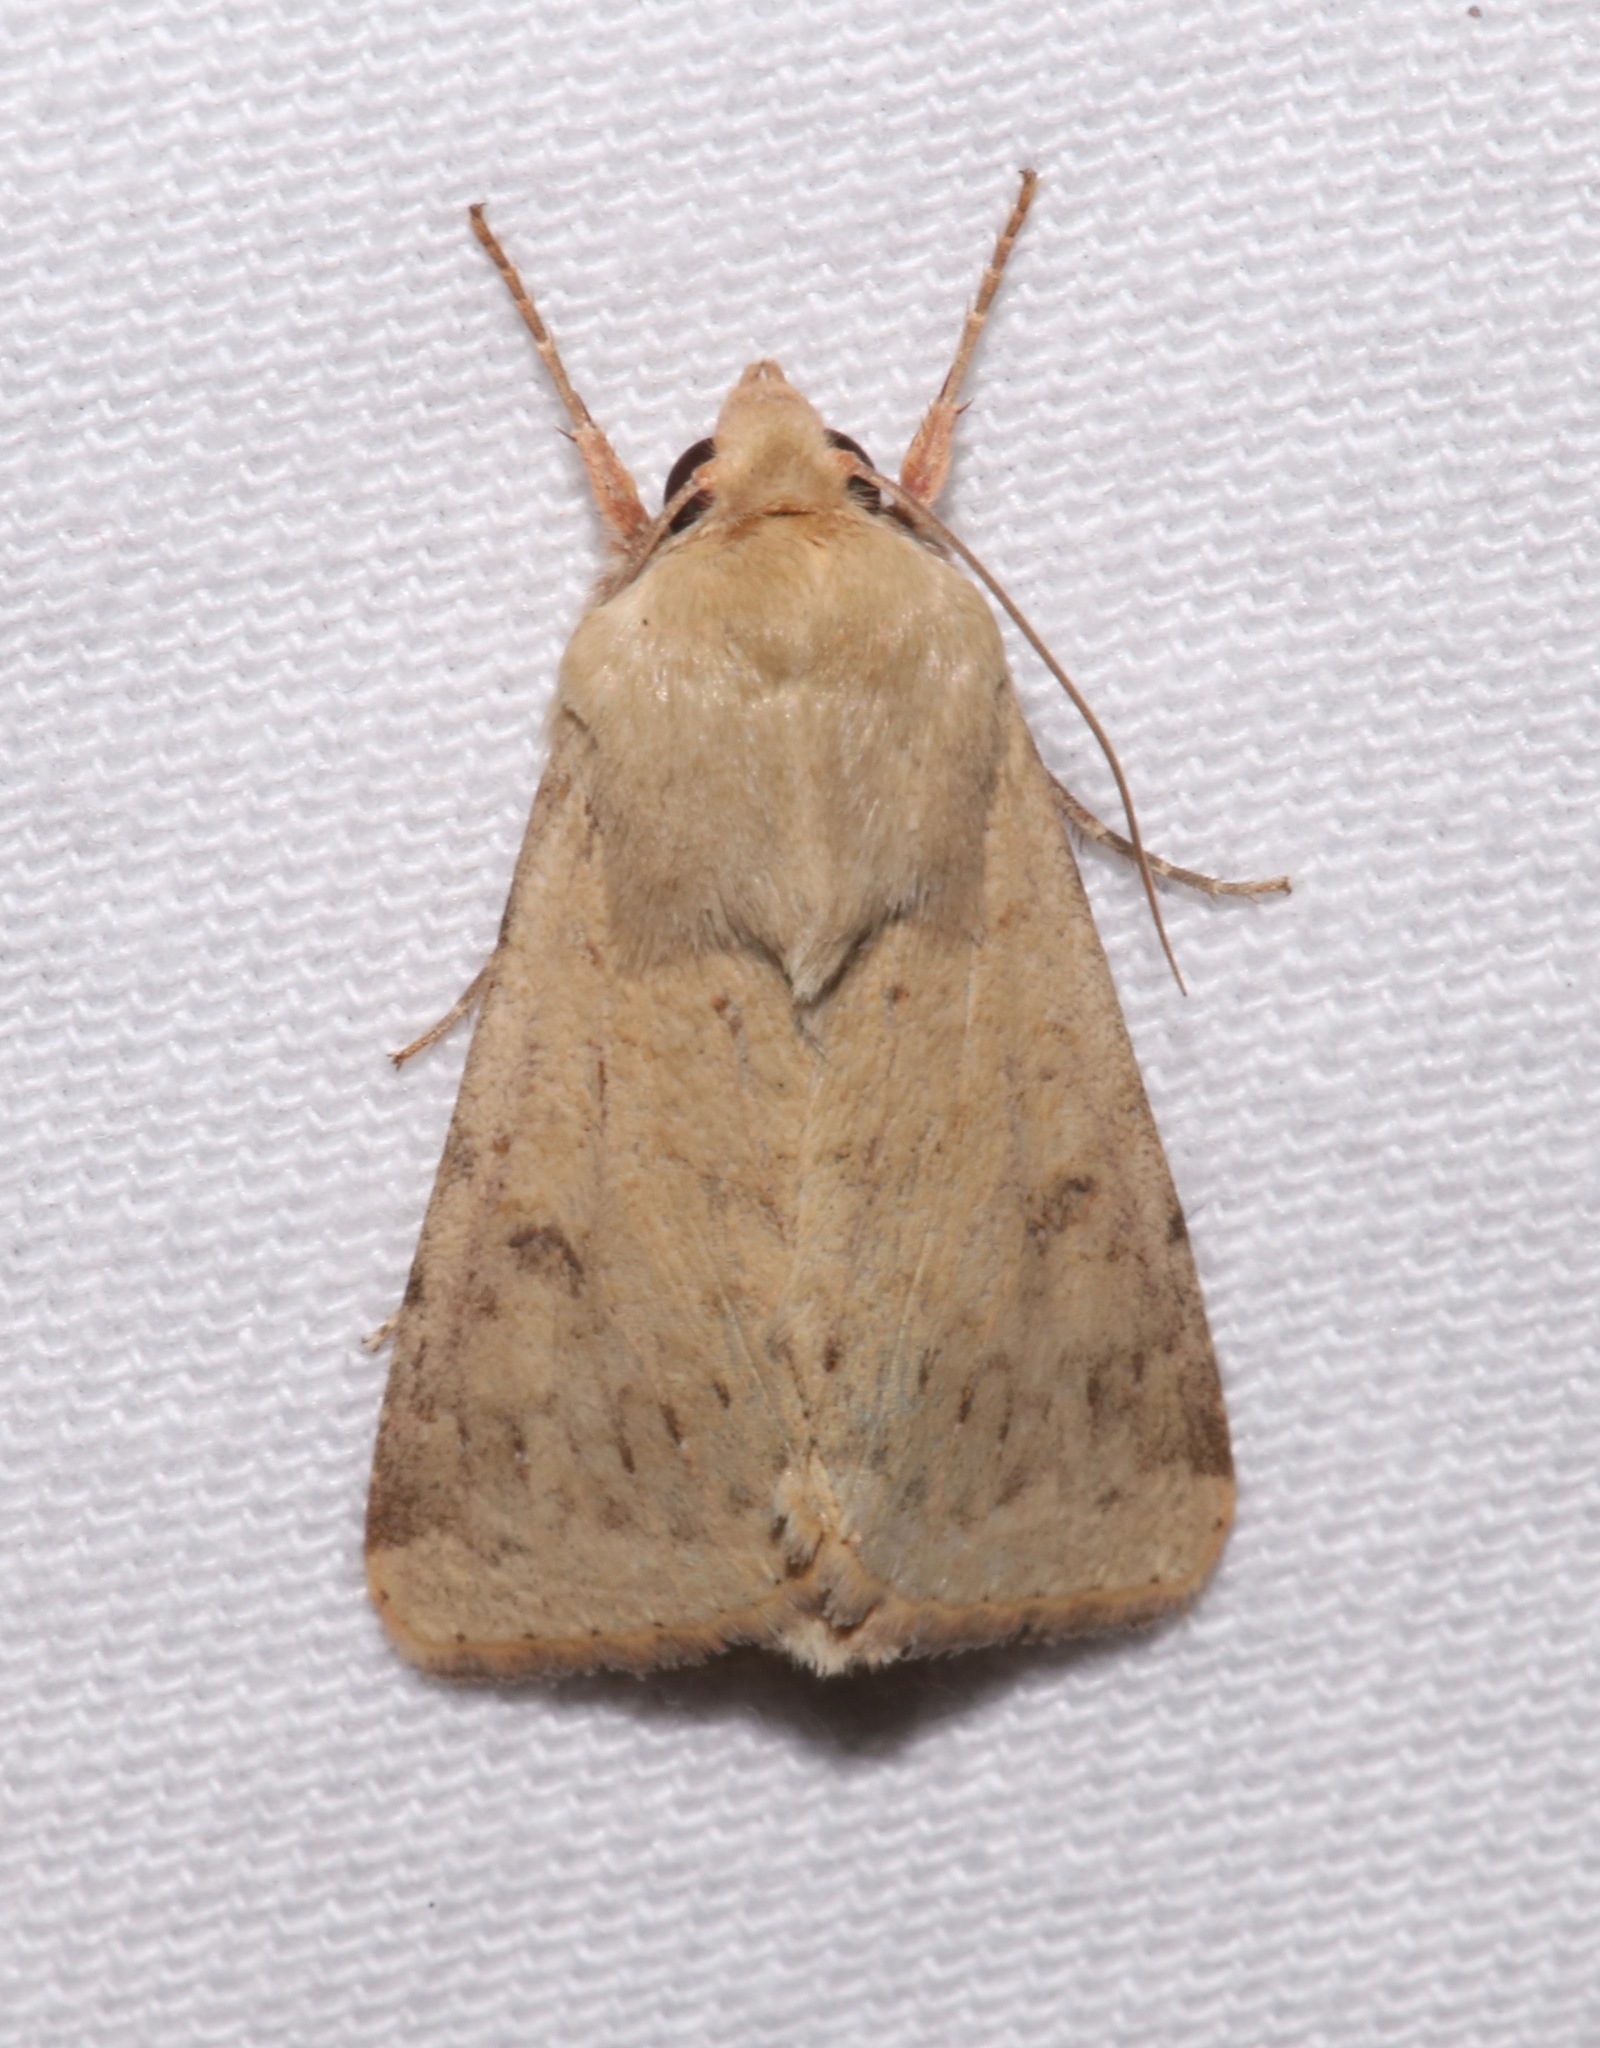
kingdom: Animalia
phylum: Arthropoda
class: Insecta
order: Lepidoptera
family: Noctuidae
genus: Helicoverpa
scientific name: Helicoverpa zea
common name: Bollworm
